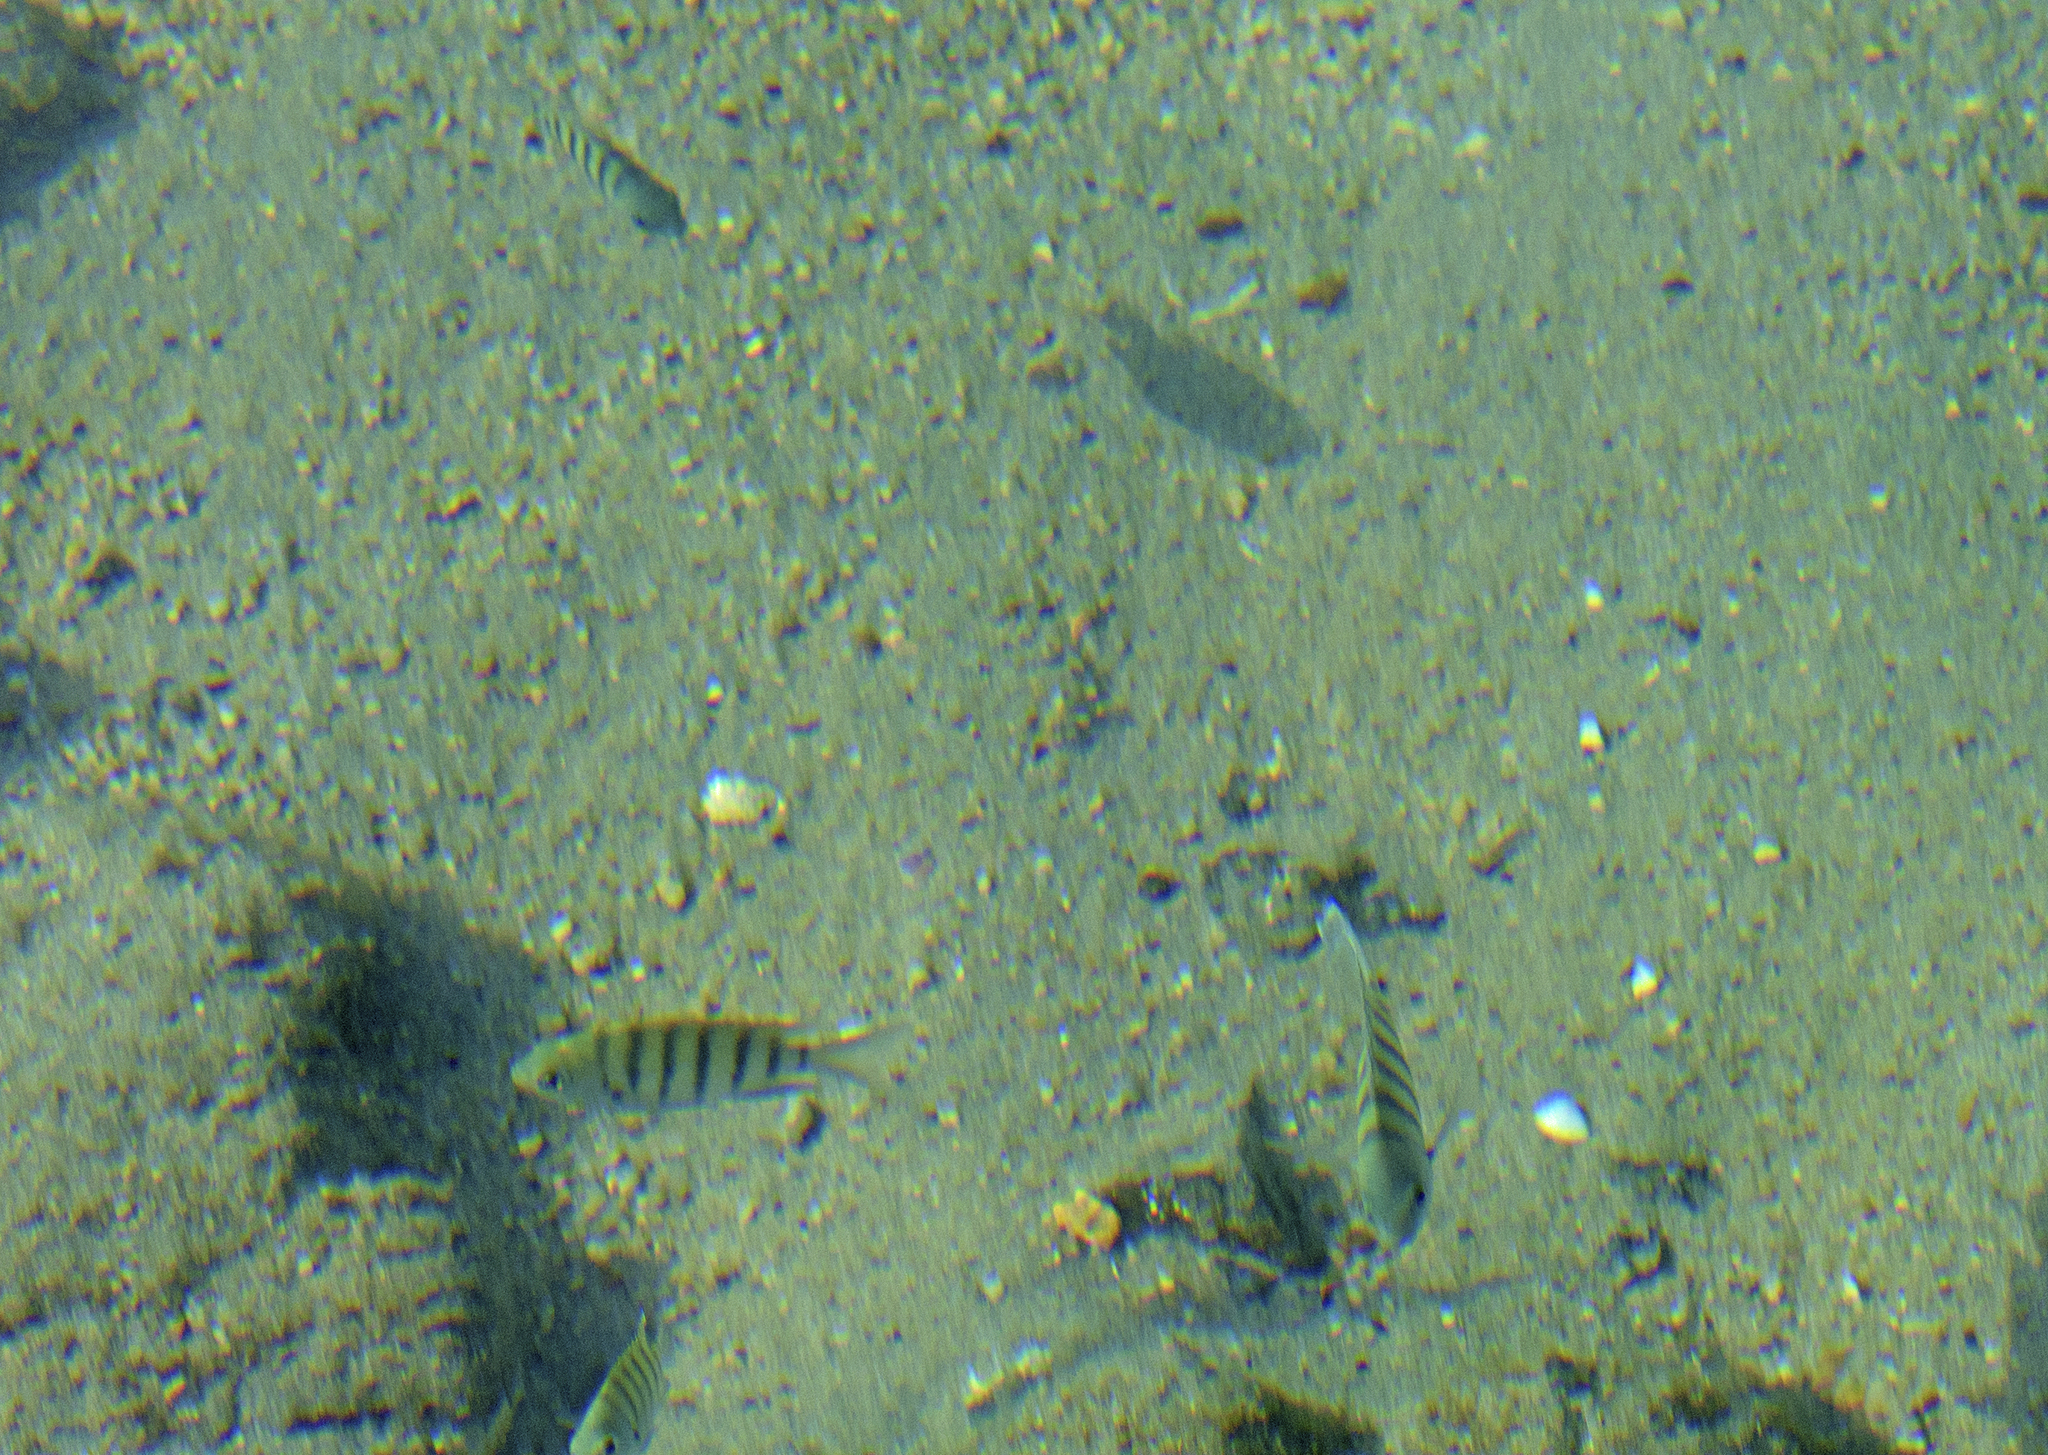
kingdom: Animalia
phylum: Chordata
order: Perciformes
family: Pomacentridae
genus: Abudefduf
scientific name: Abudefduf bengalensis
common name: Bengal sergeant
